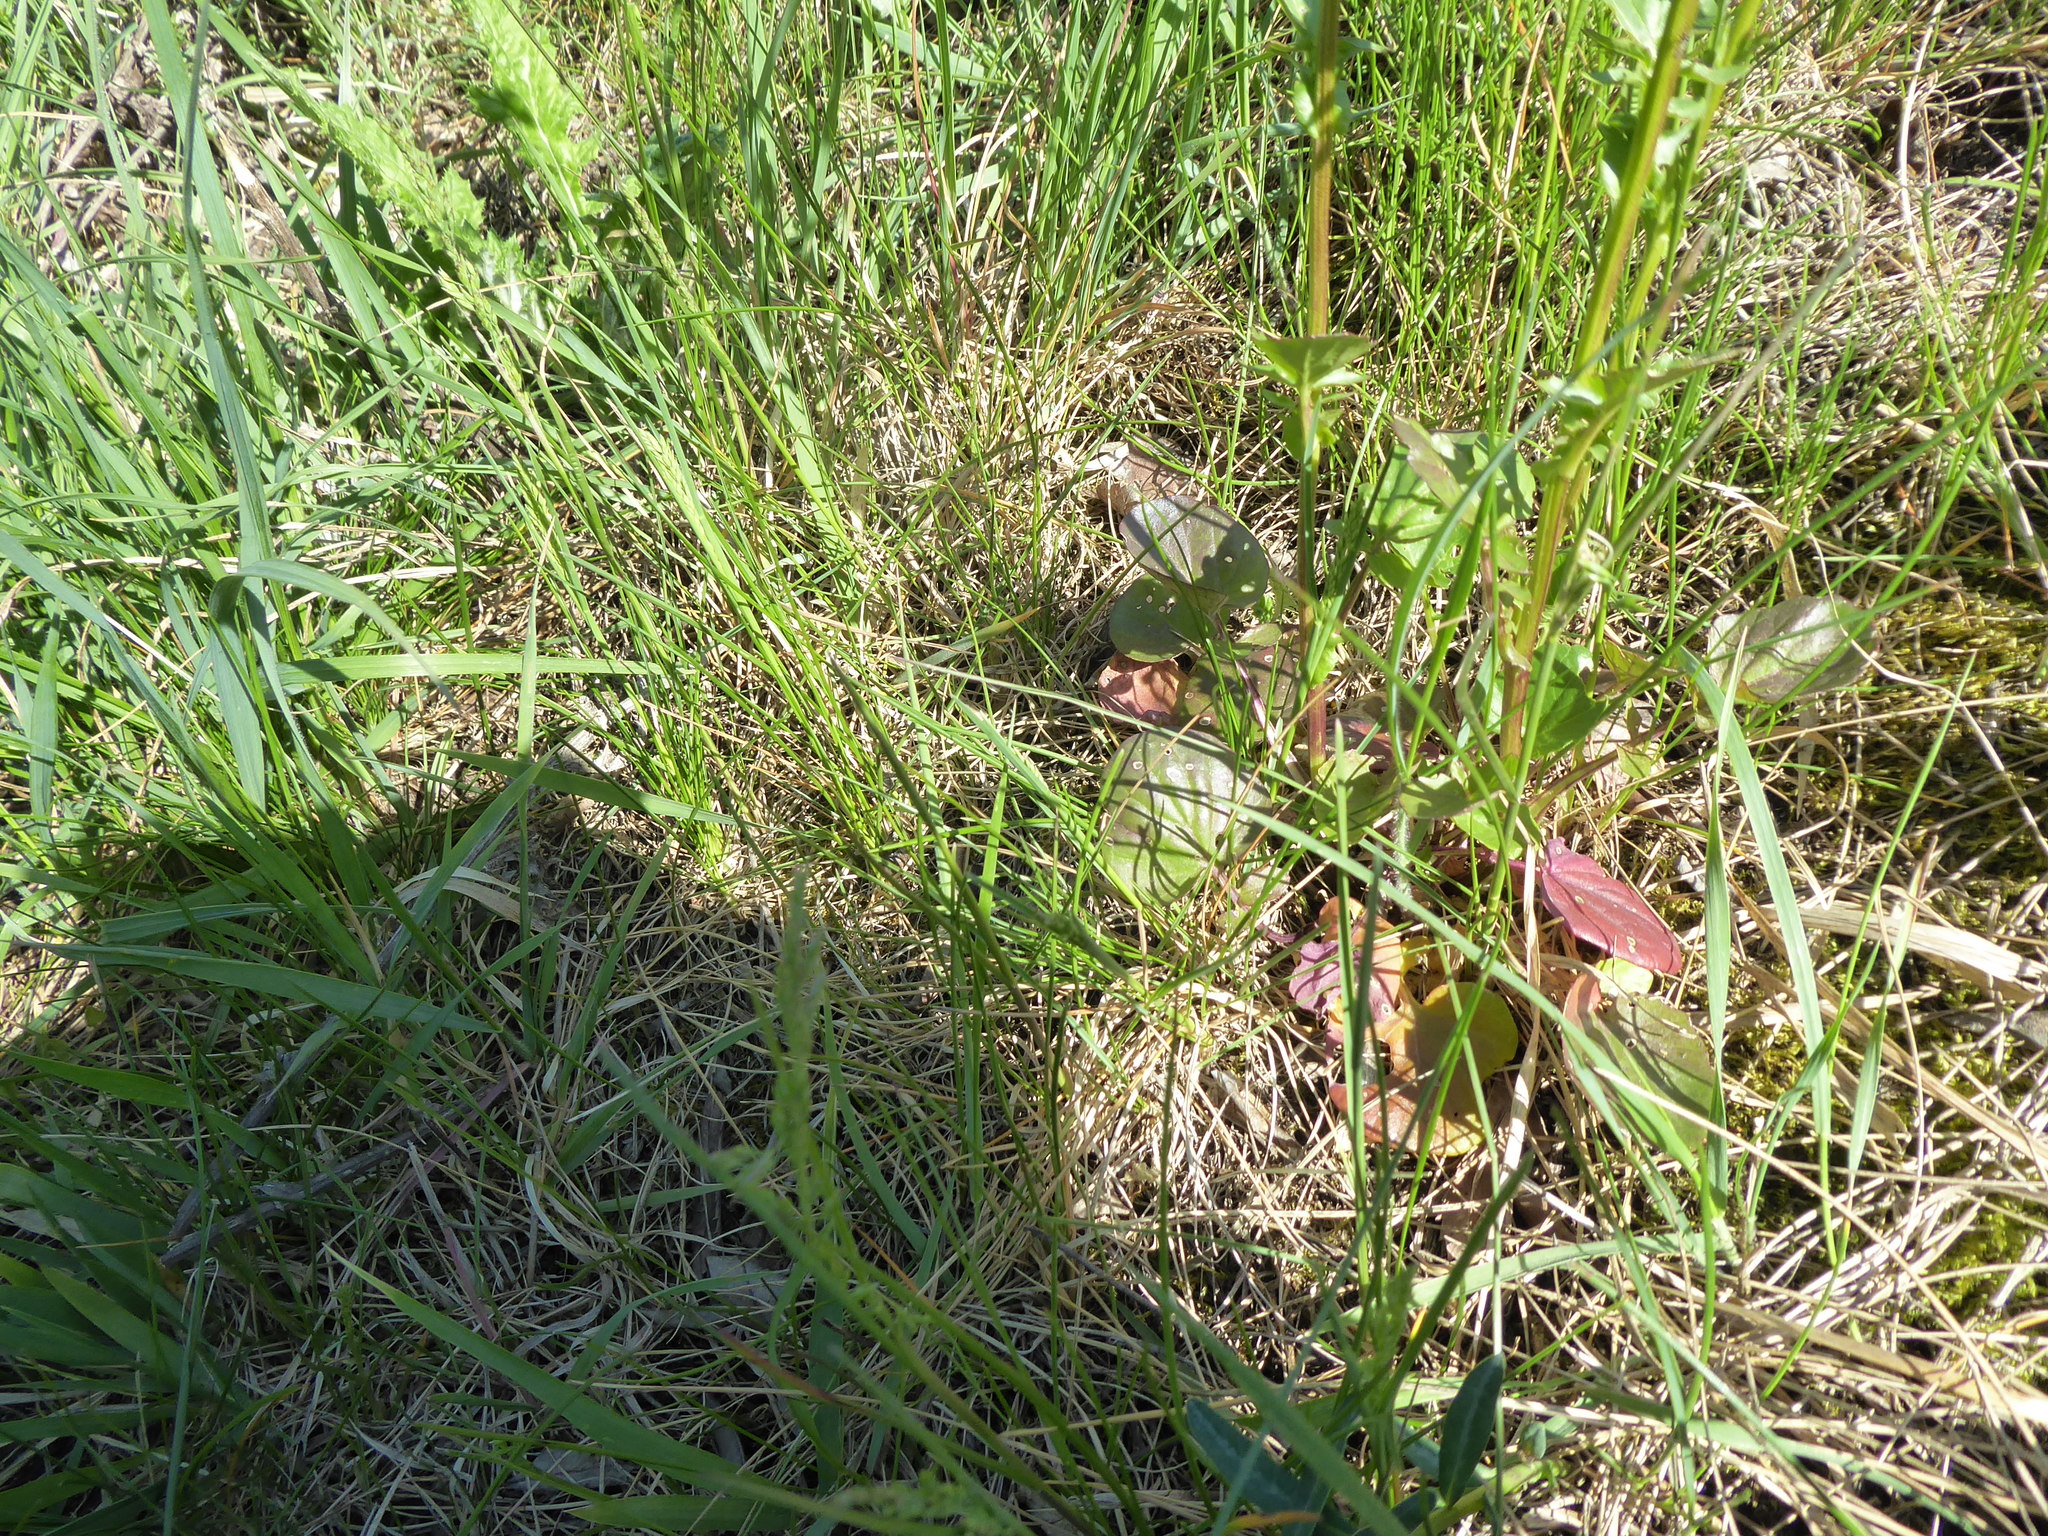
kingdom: Plantae
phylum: Tracheophyta
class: Magnoliopsida
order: Brassicales
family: Brassicaceae
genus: Barbarea
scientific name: Barbarea vulgaris
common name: Cressy-greens
